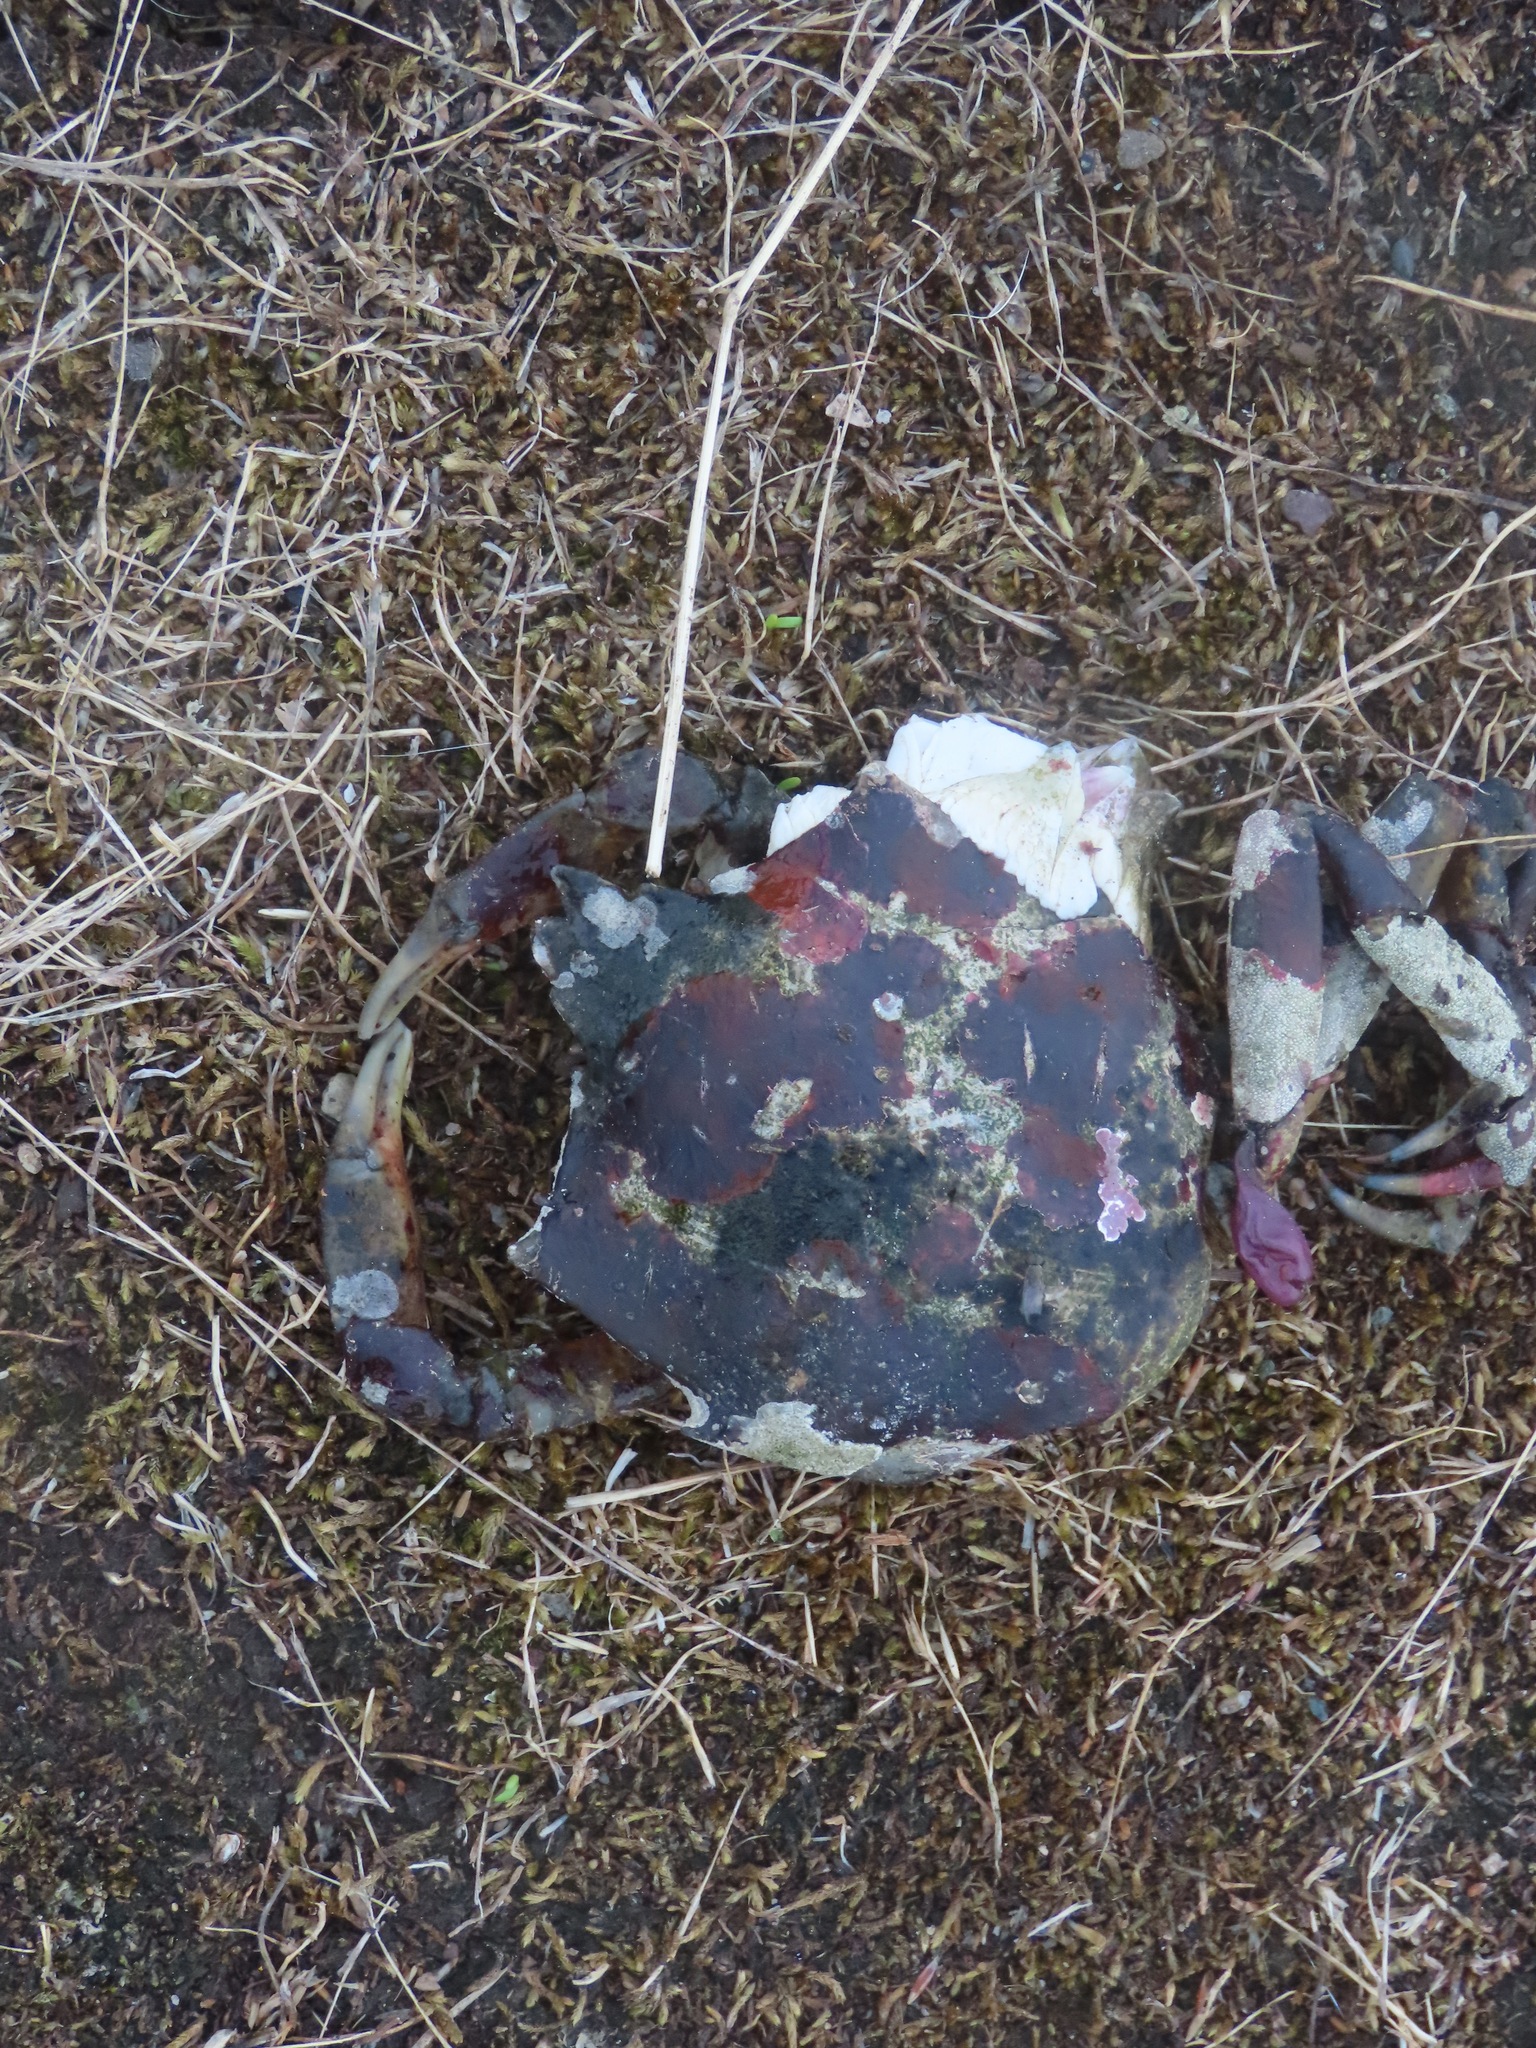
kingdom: Animalia
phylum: Arthropoda
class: Malacostraca
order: Decapoda
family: Epialtidae
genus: Pugettia
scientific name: Pugettia producta
